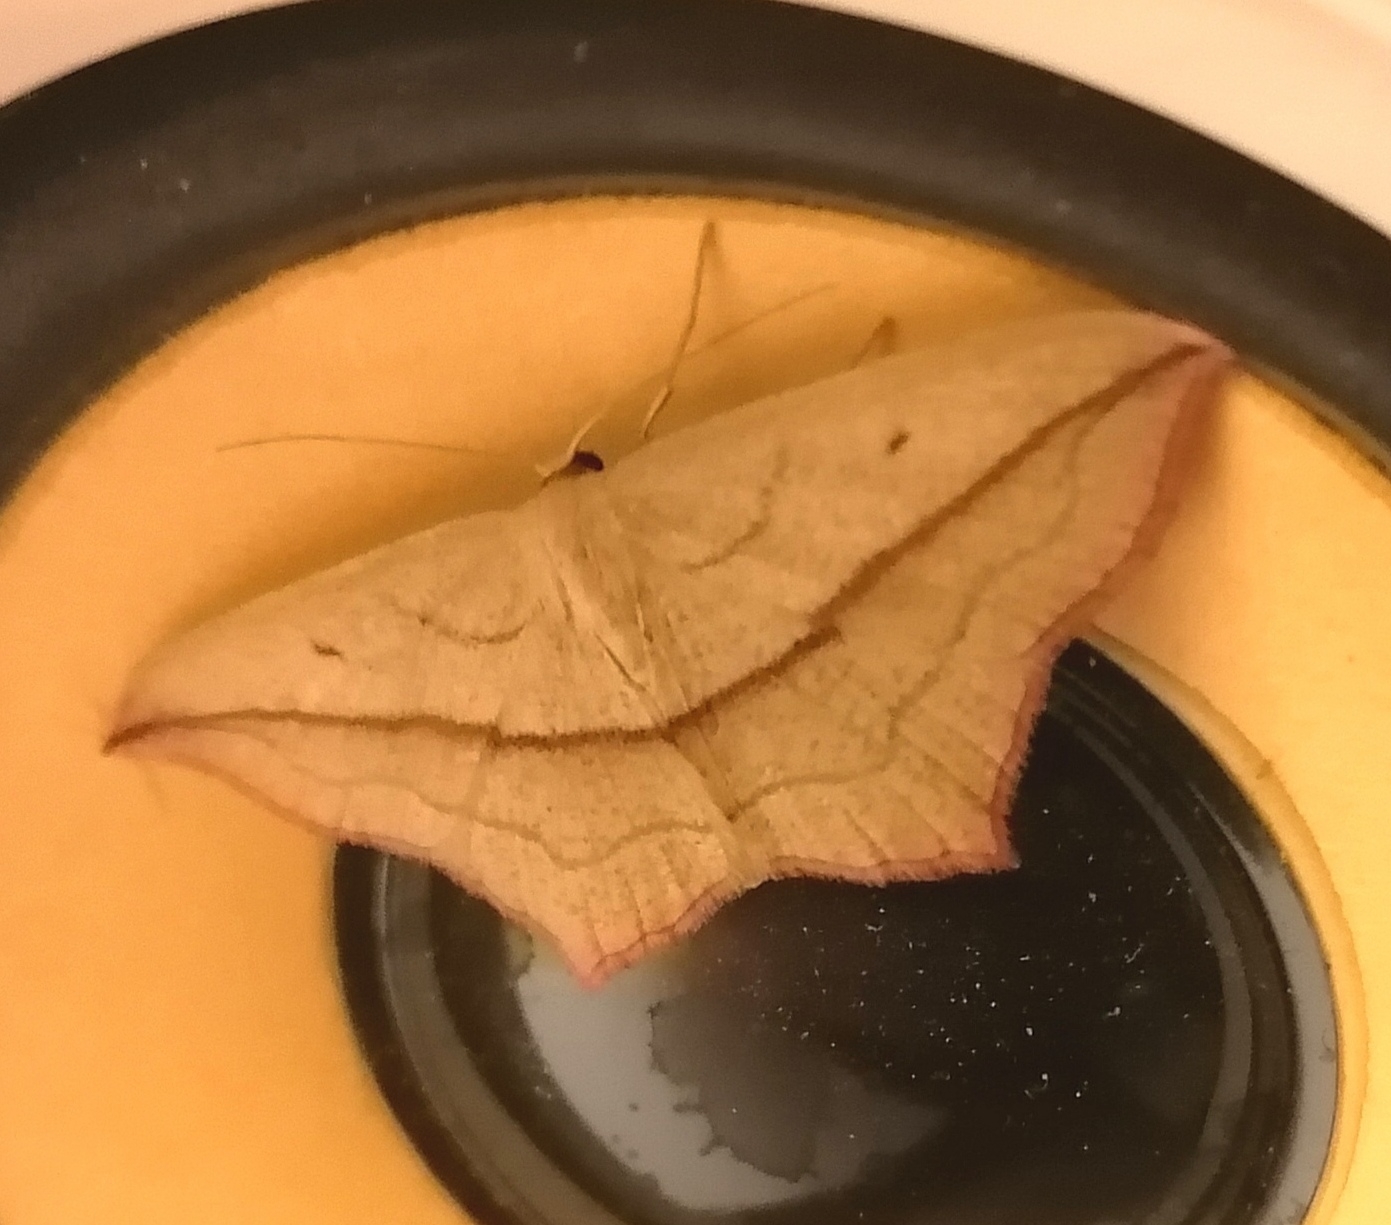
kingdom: Animalia
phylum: Arthropoda
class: Insecta
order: Lepidoptera
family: Geometridae
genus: Timandra
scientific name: Timandra comae
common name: Blood-vein
